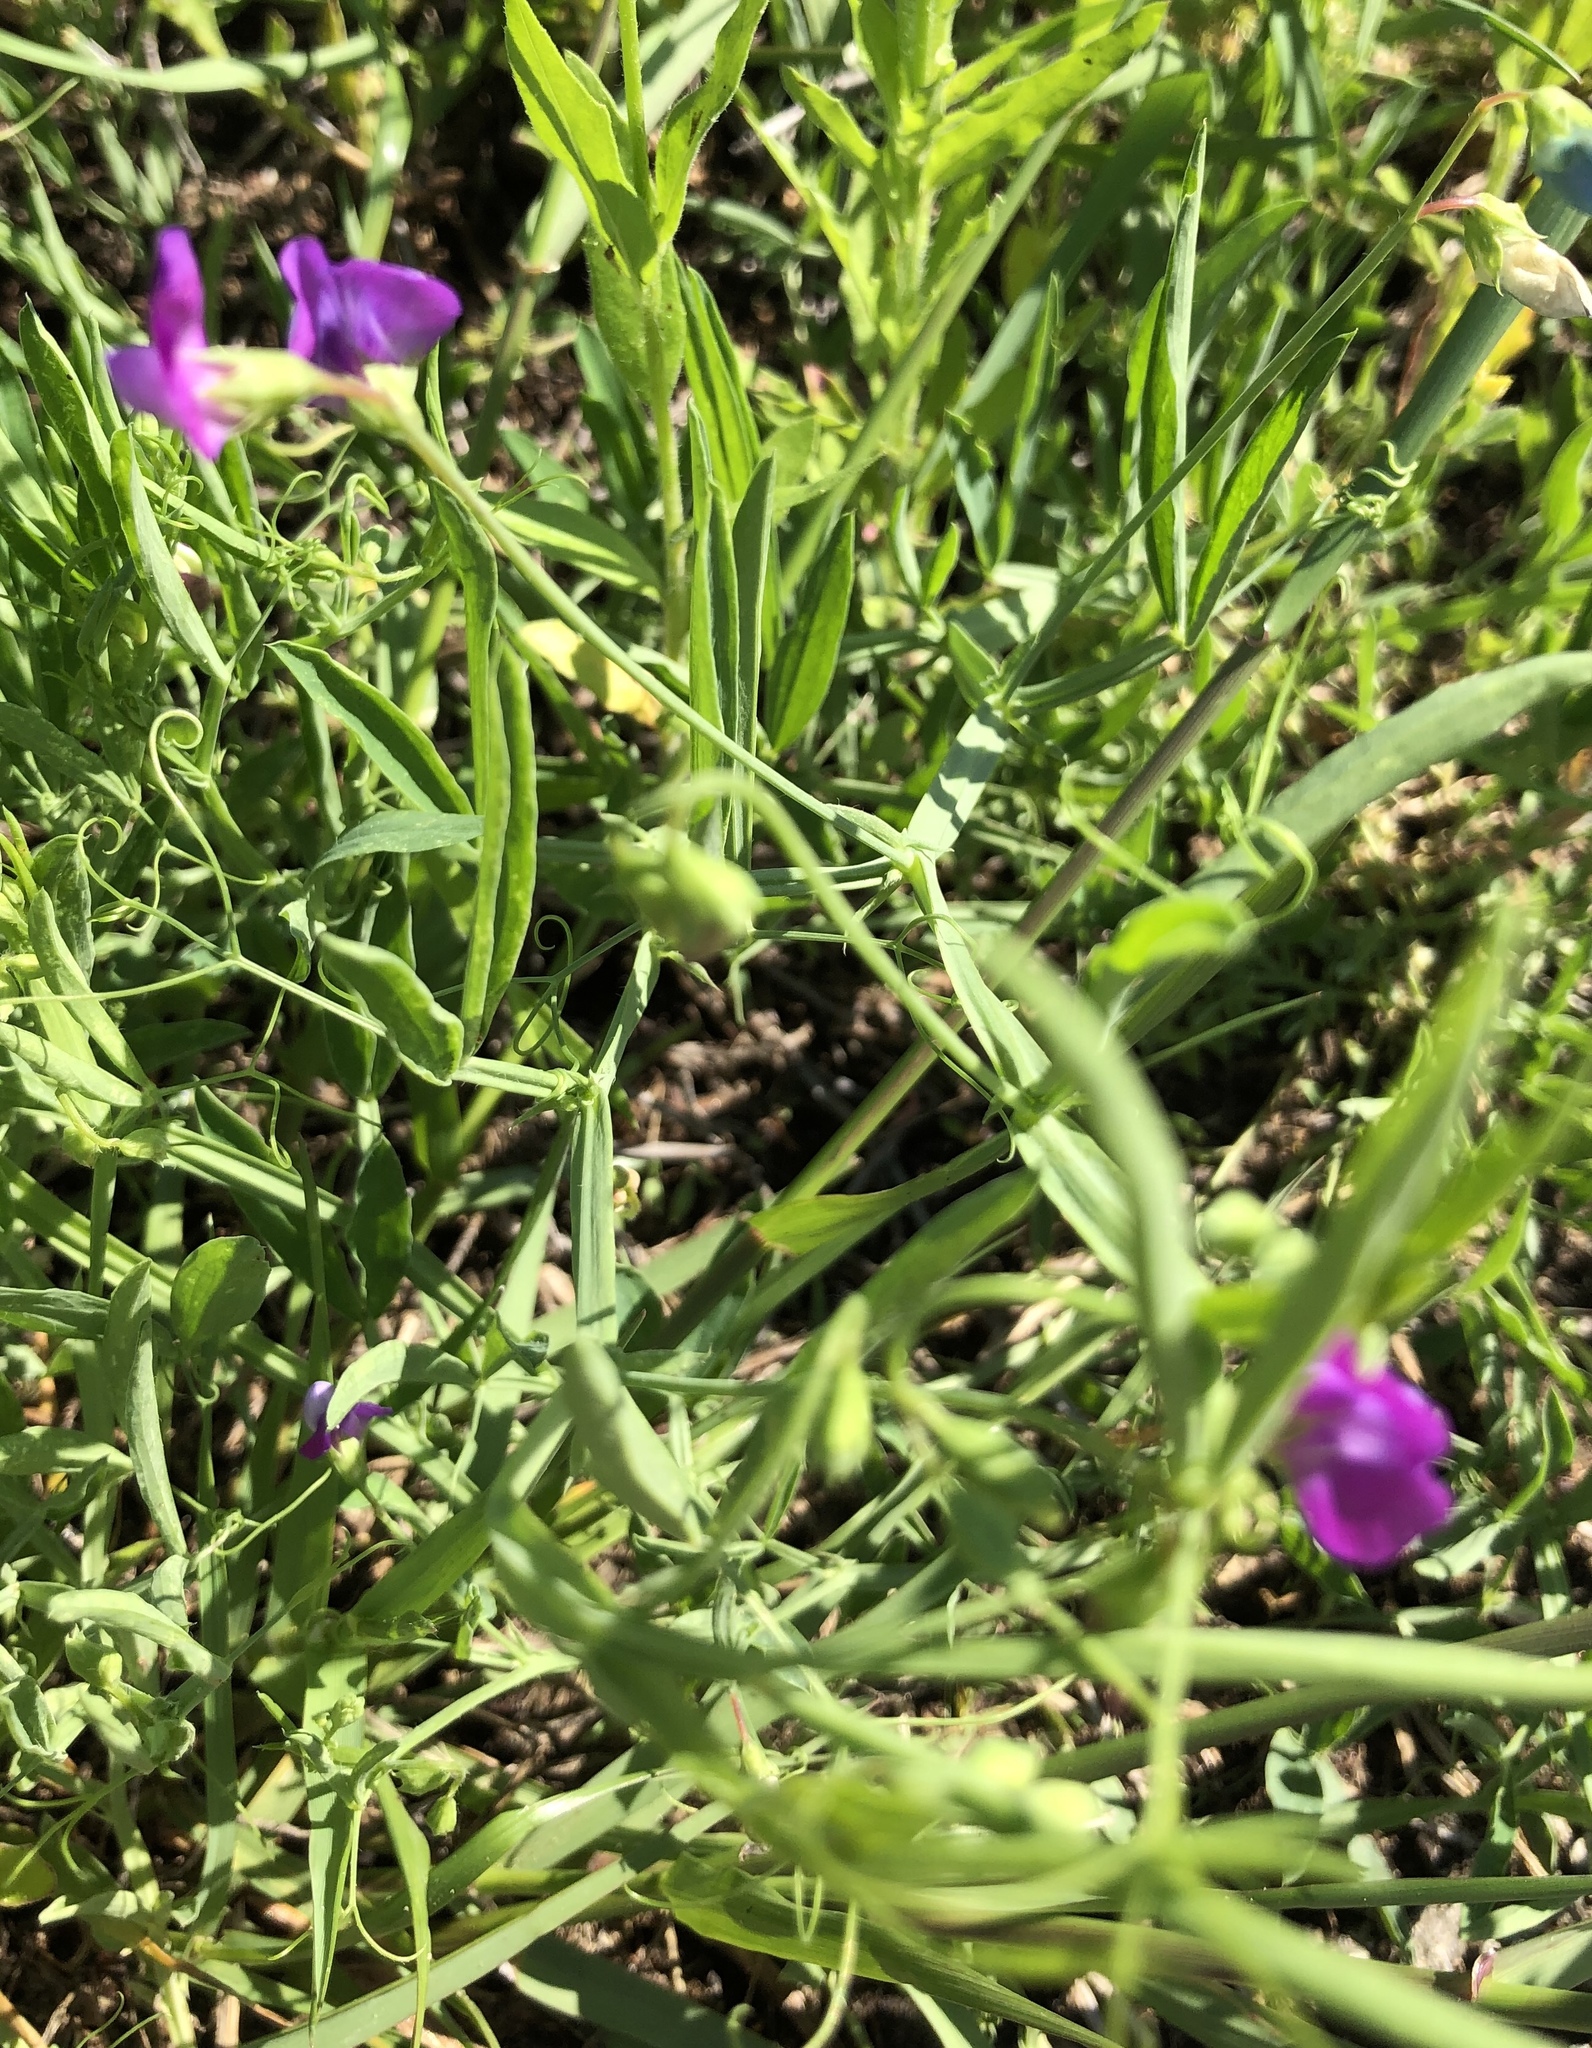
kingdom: Plantae
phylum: Tracheophyta
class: Magnoliopsida
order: Fabales
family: Fabaceae
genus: Lathyrus
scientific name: Lathyrus hirsutus
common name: Hairy vetchling
